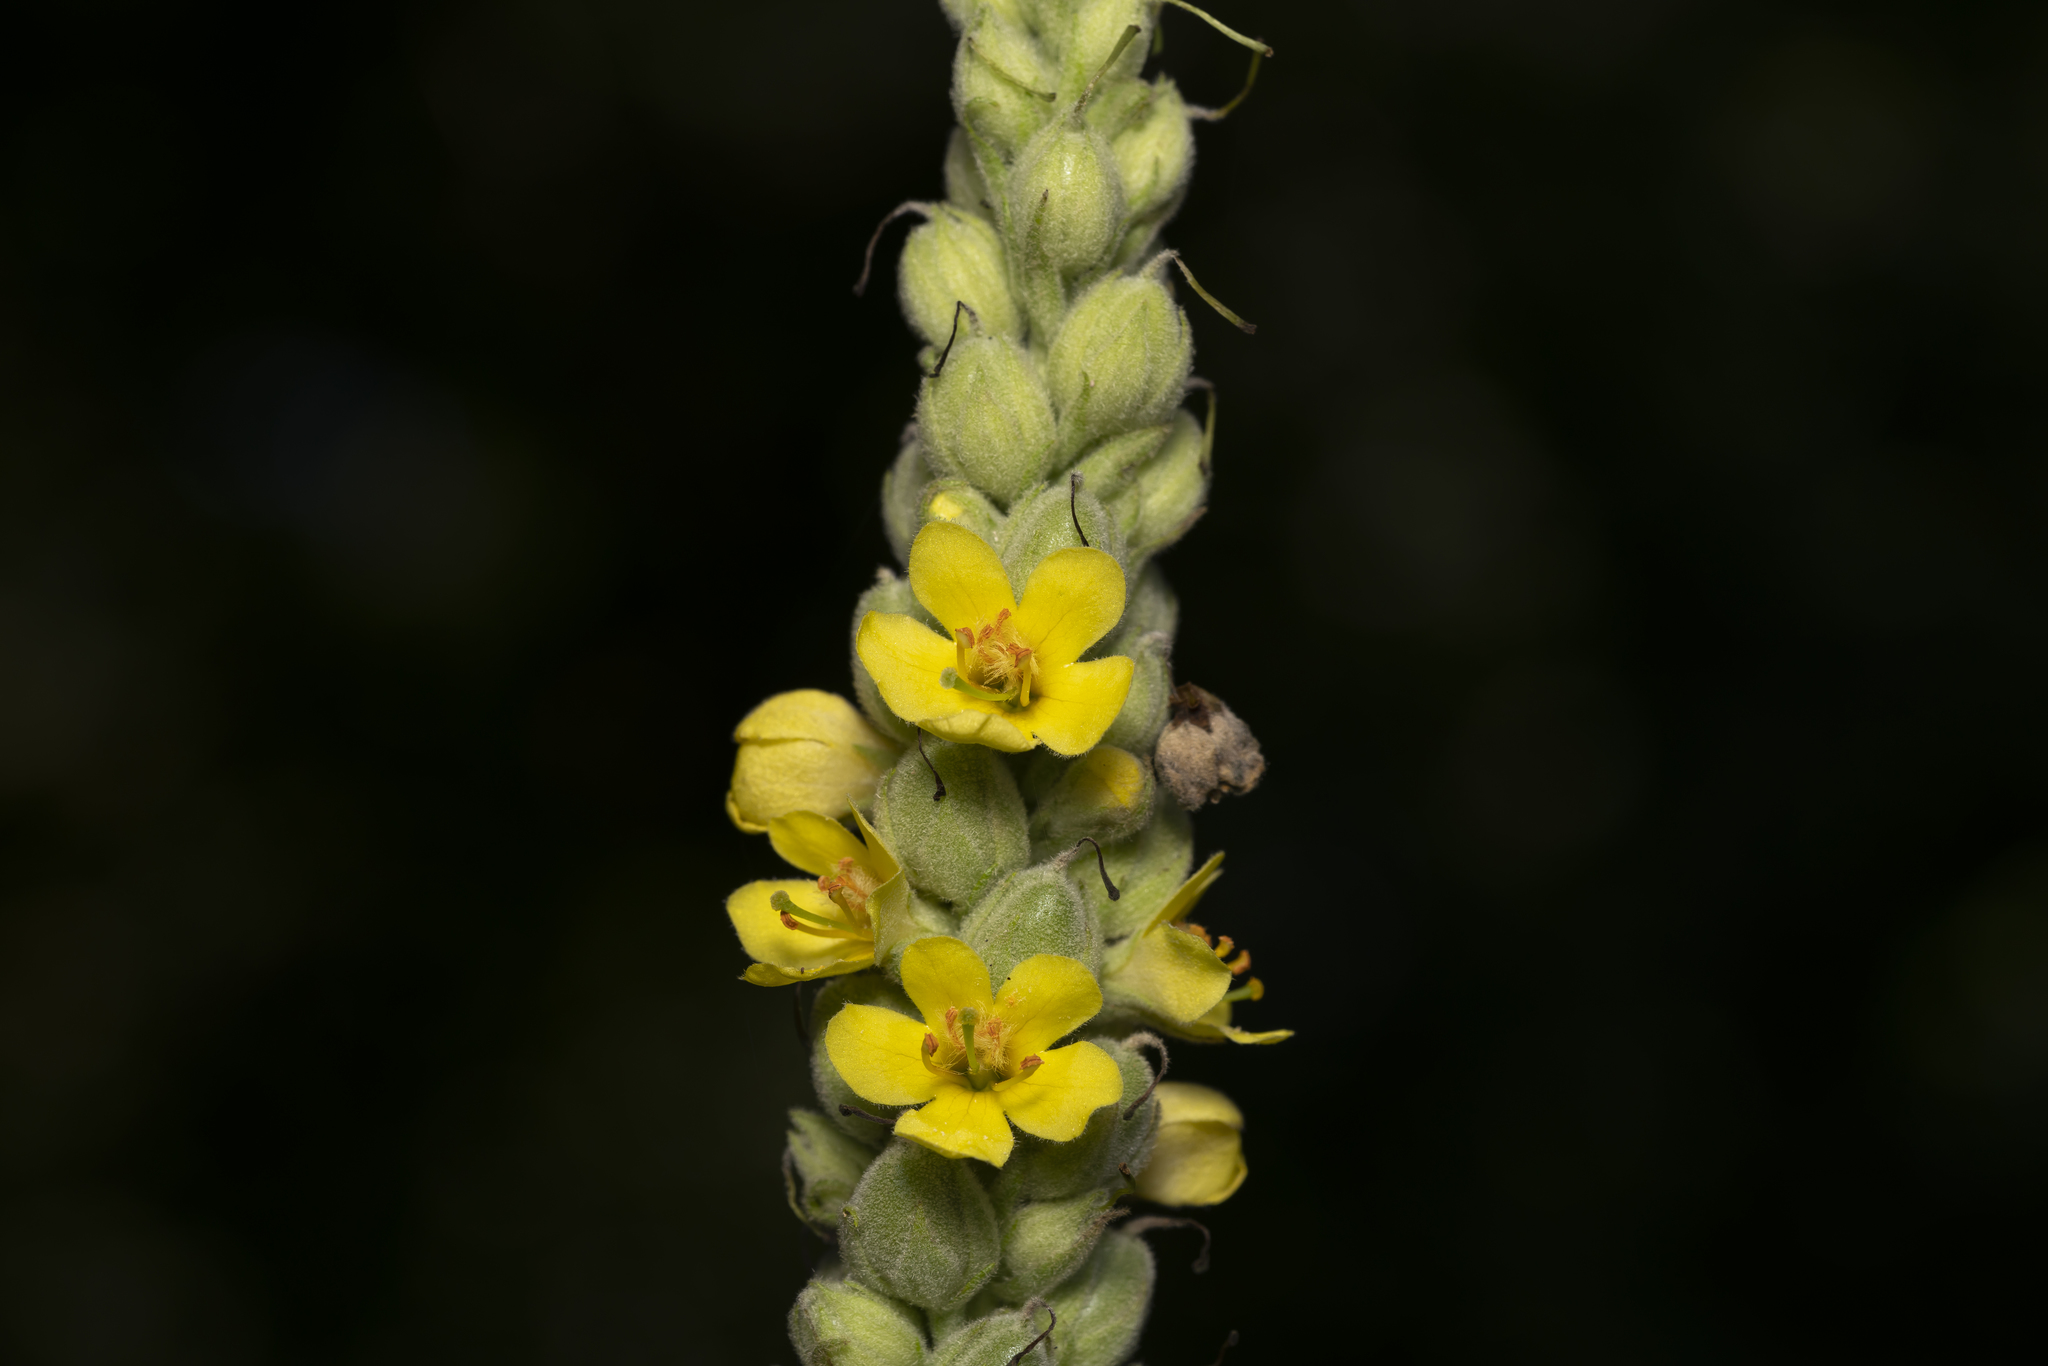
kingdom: Plantae
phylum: Tracheophyta
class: Magnoliopsida
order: Lamiales
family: Scrophulariaceae
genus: Verbascum
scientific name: Verbascum thapsus
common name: Common mullein
